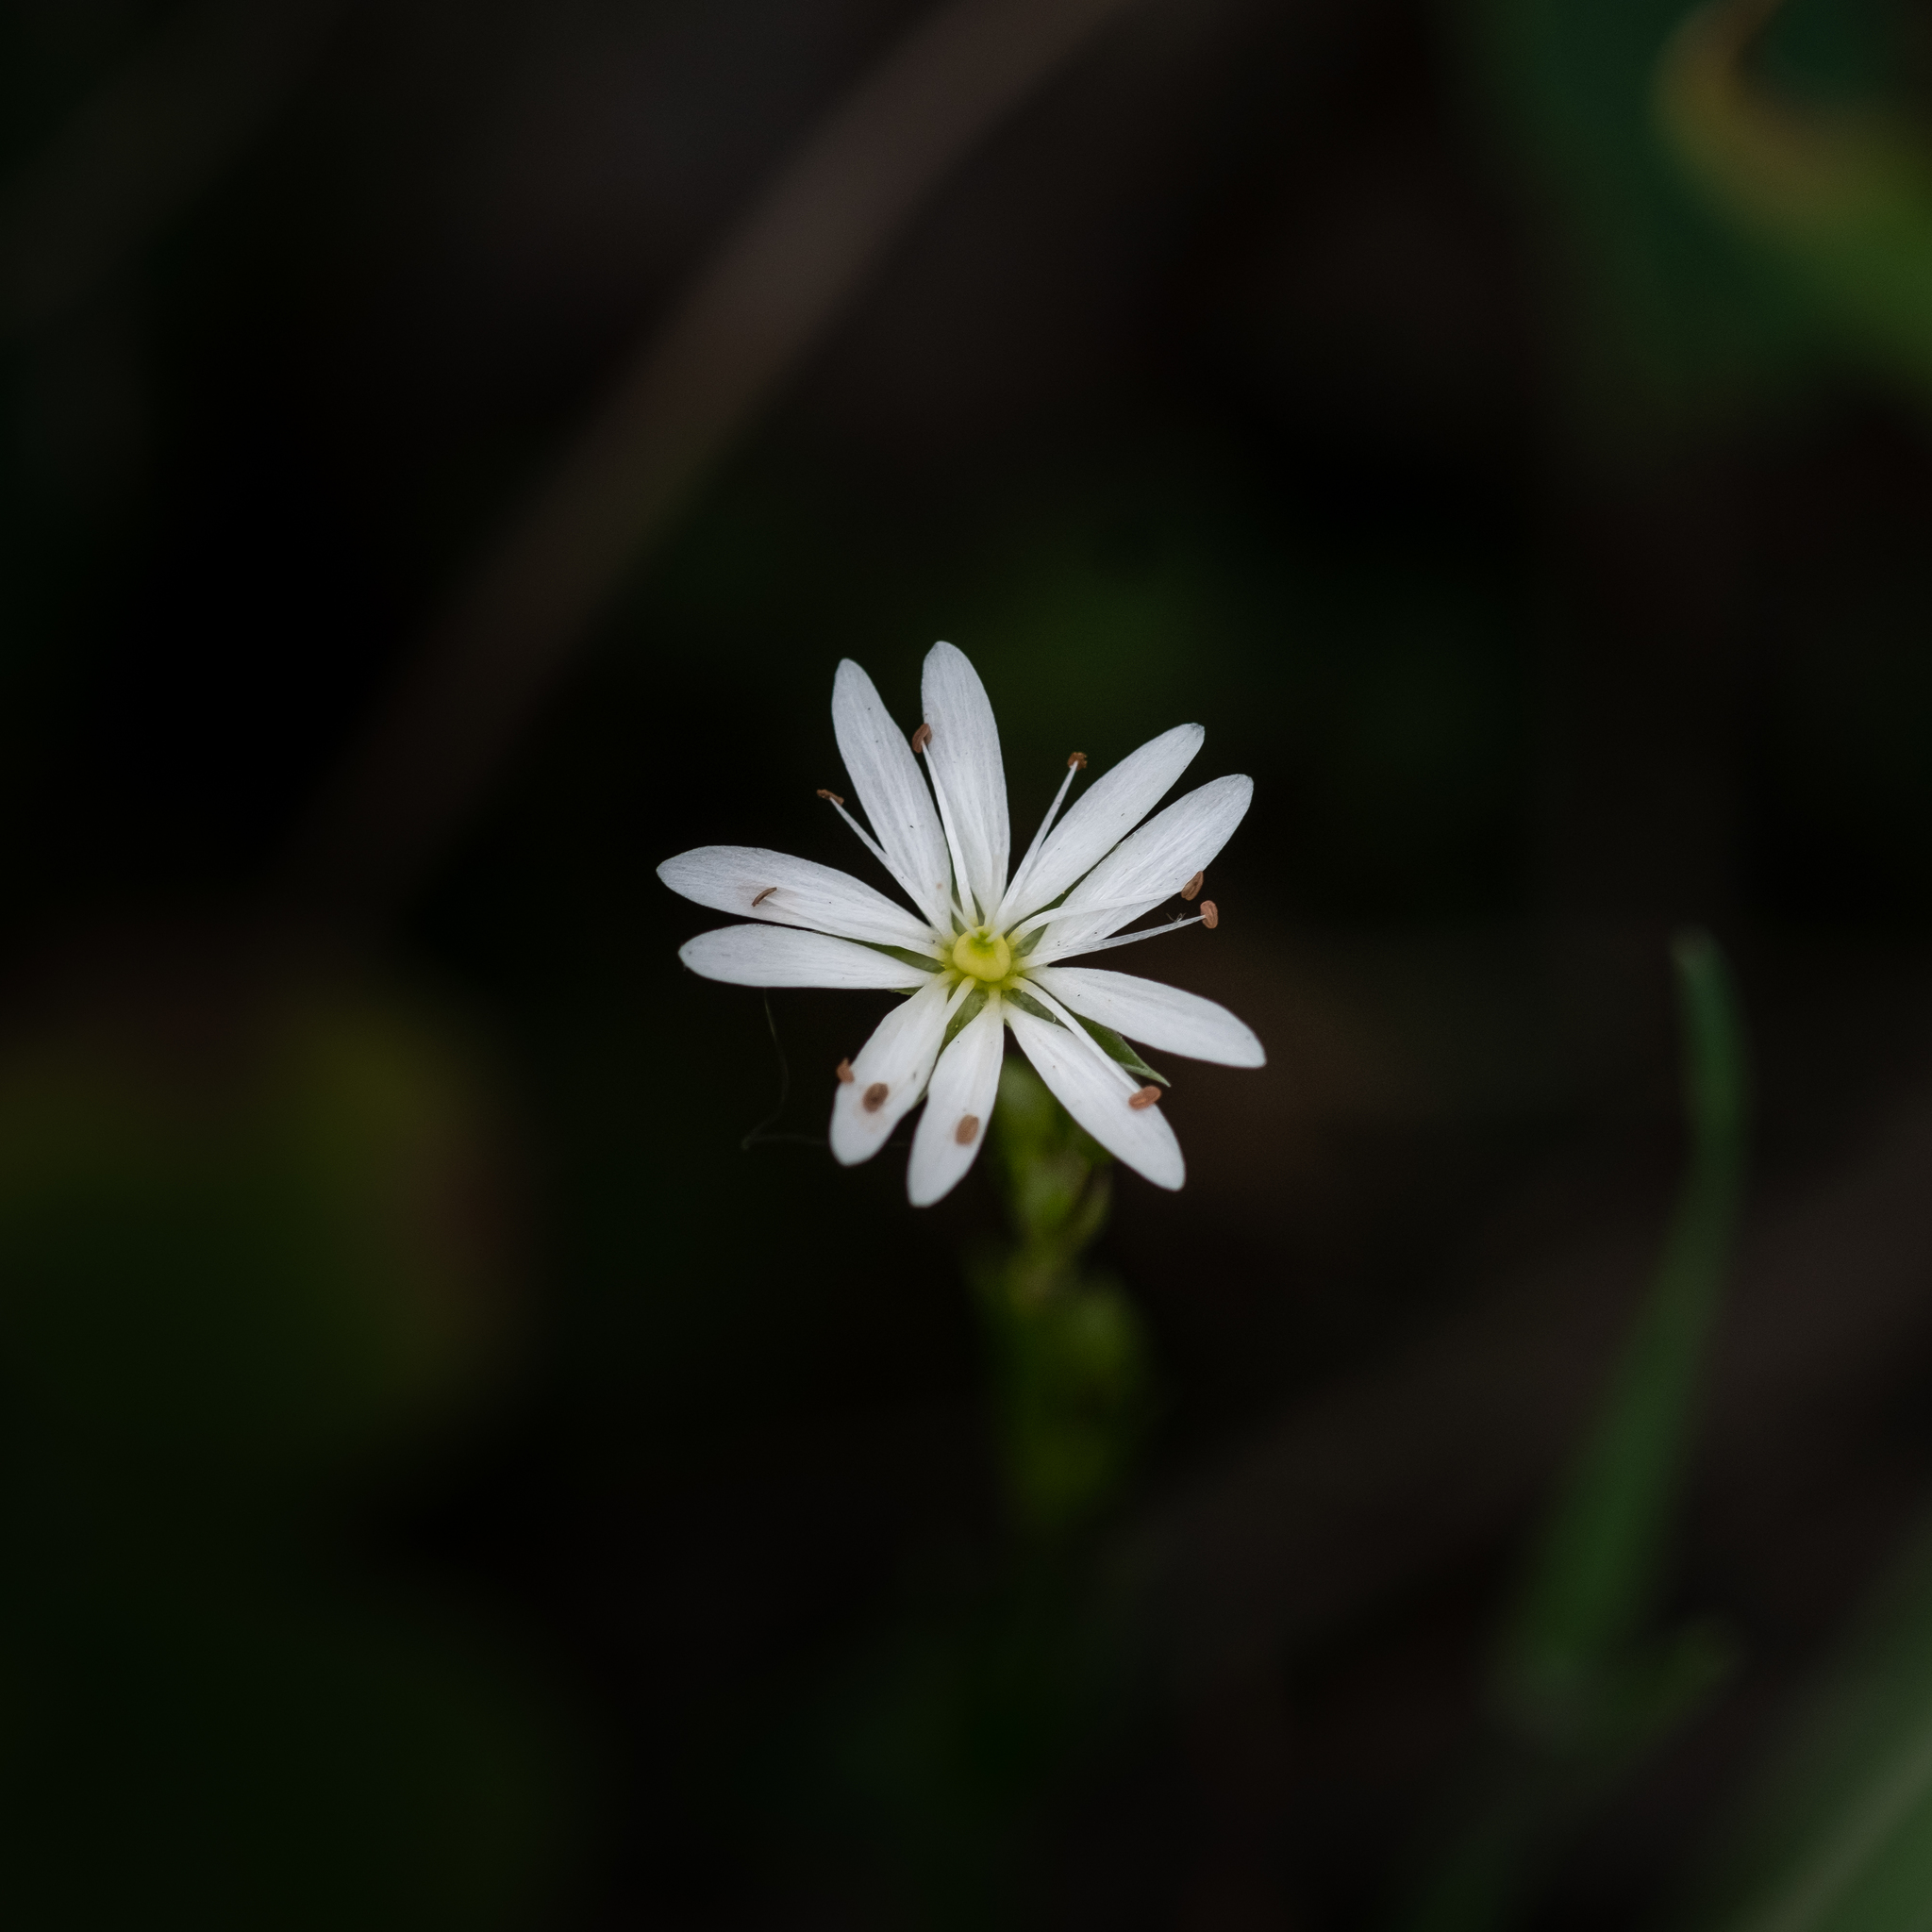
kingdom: Plantae
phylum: Tracheophyta
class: Magnoliopsida
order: Caryophyllales
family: Caryophyllaceae
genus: Stellaria
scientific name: Stellaria graminea
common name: Grass-like starwort
